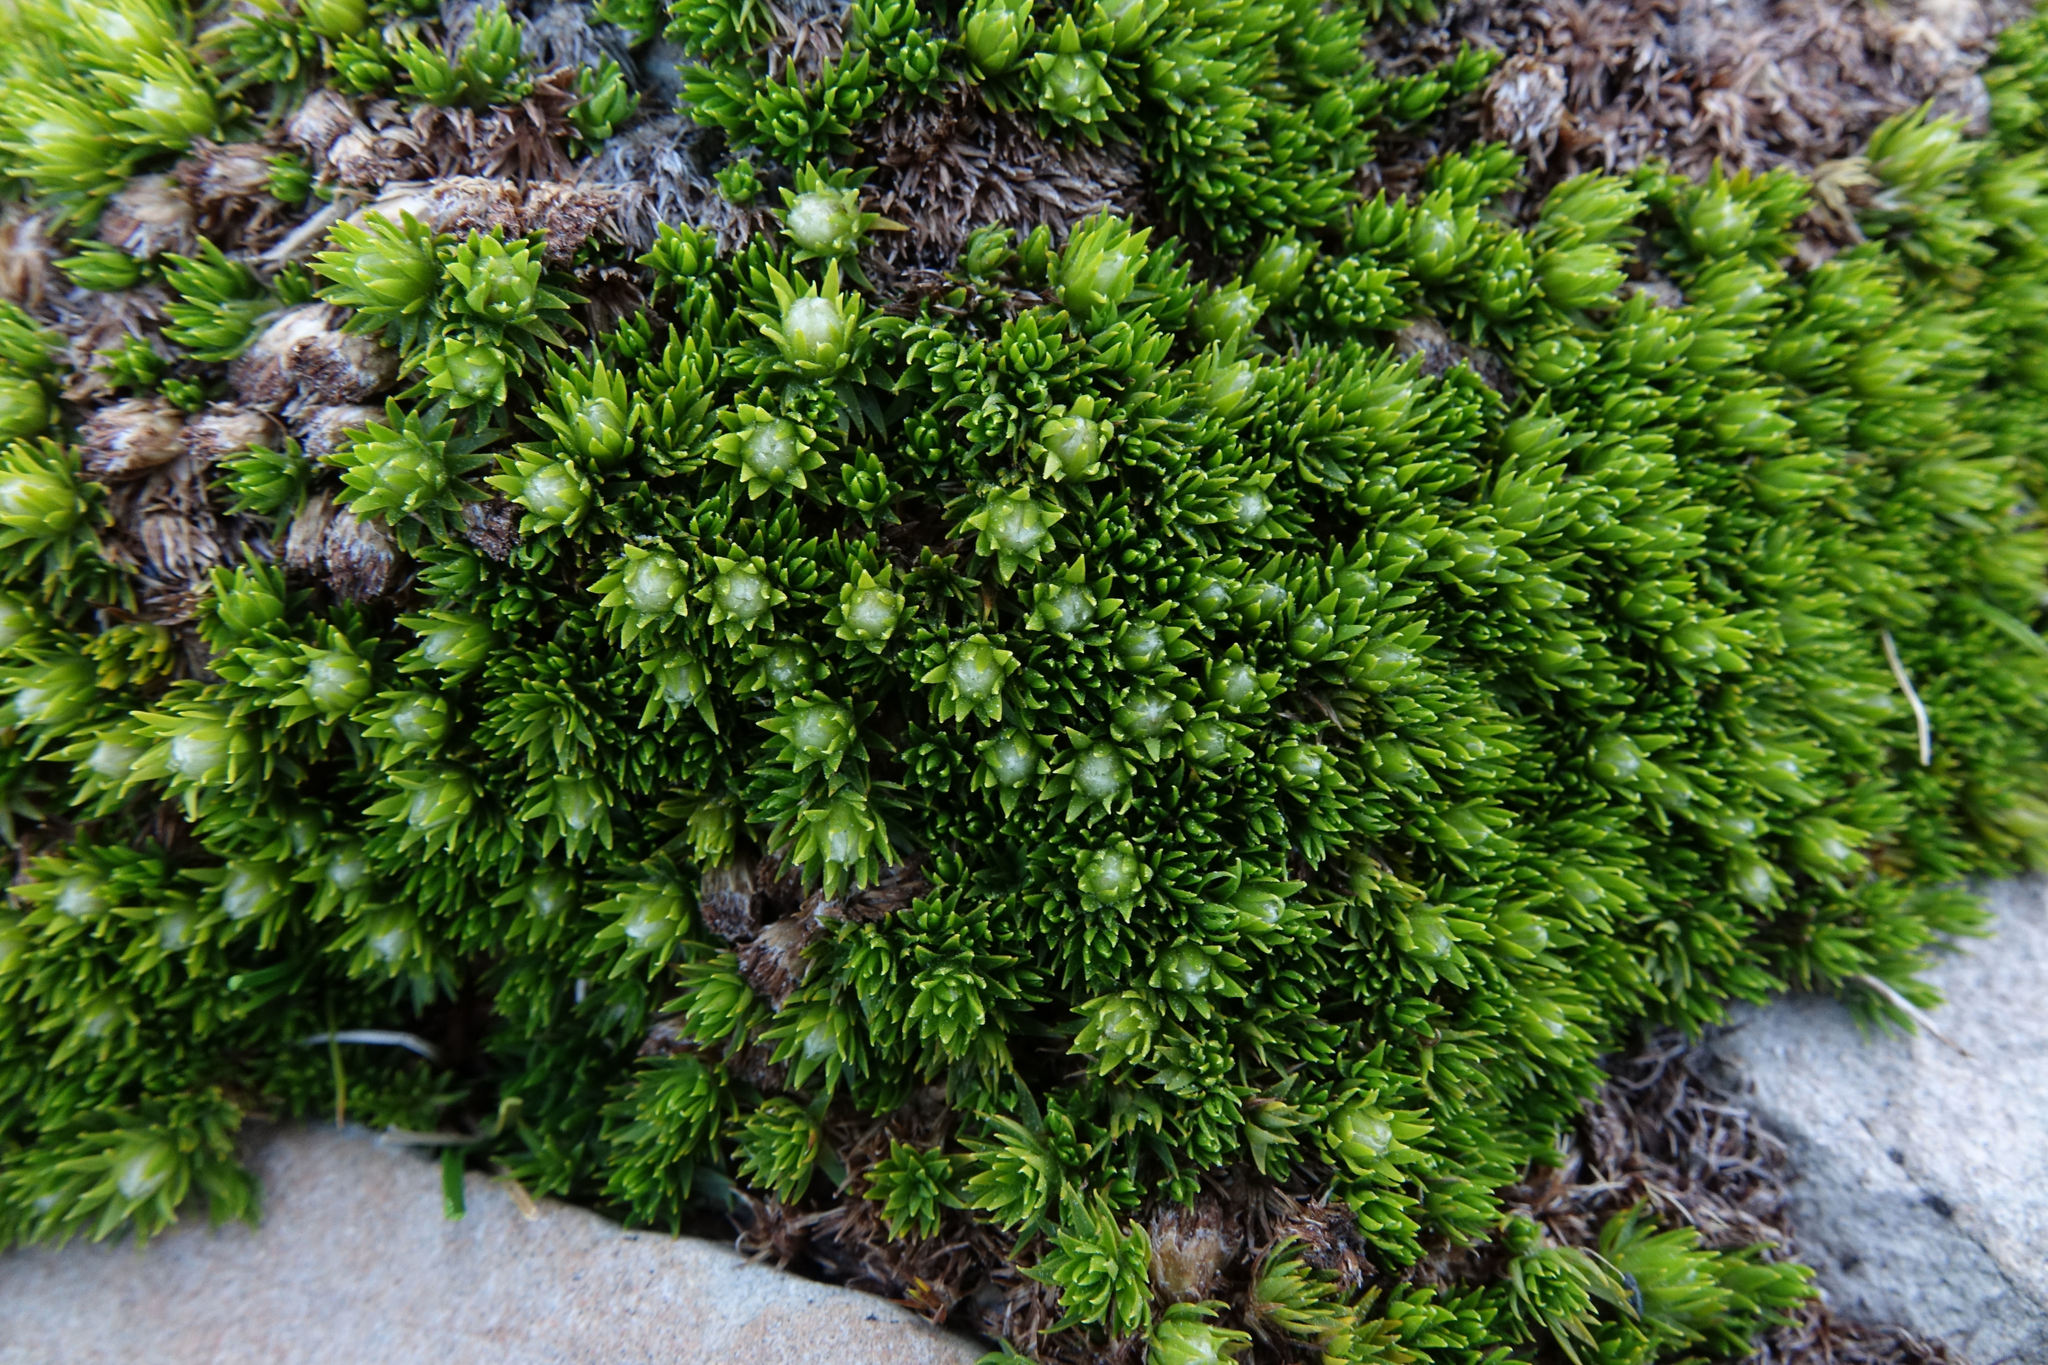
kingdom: Plantae
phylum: Tracheophyta
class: Magnoliopsida
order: Asterales
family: Asteraceae
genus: Raoulia
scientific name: Raoulia subulata
